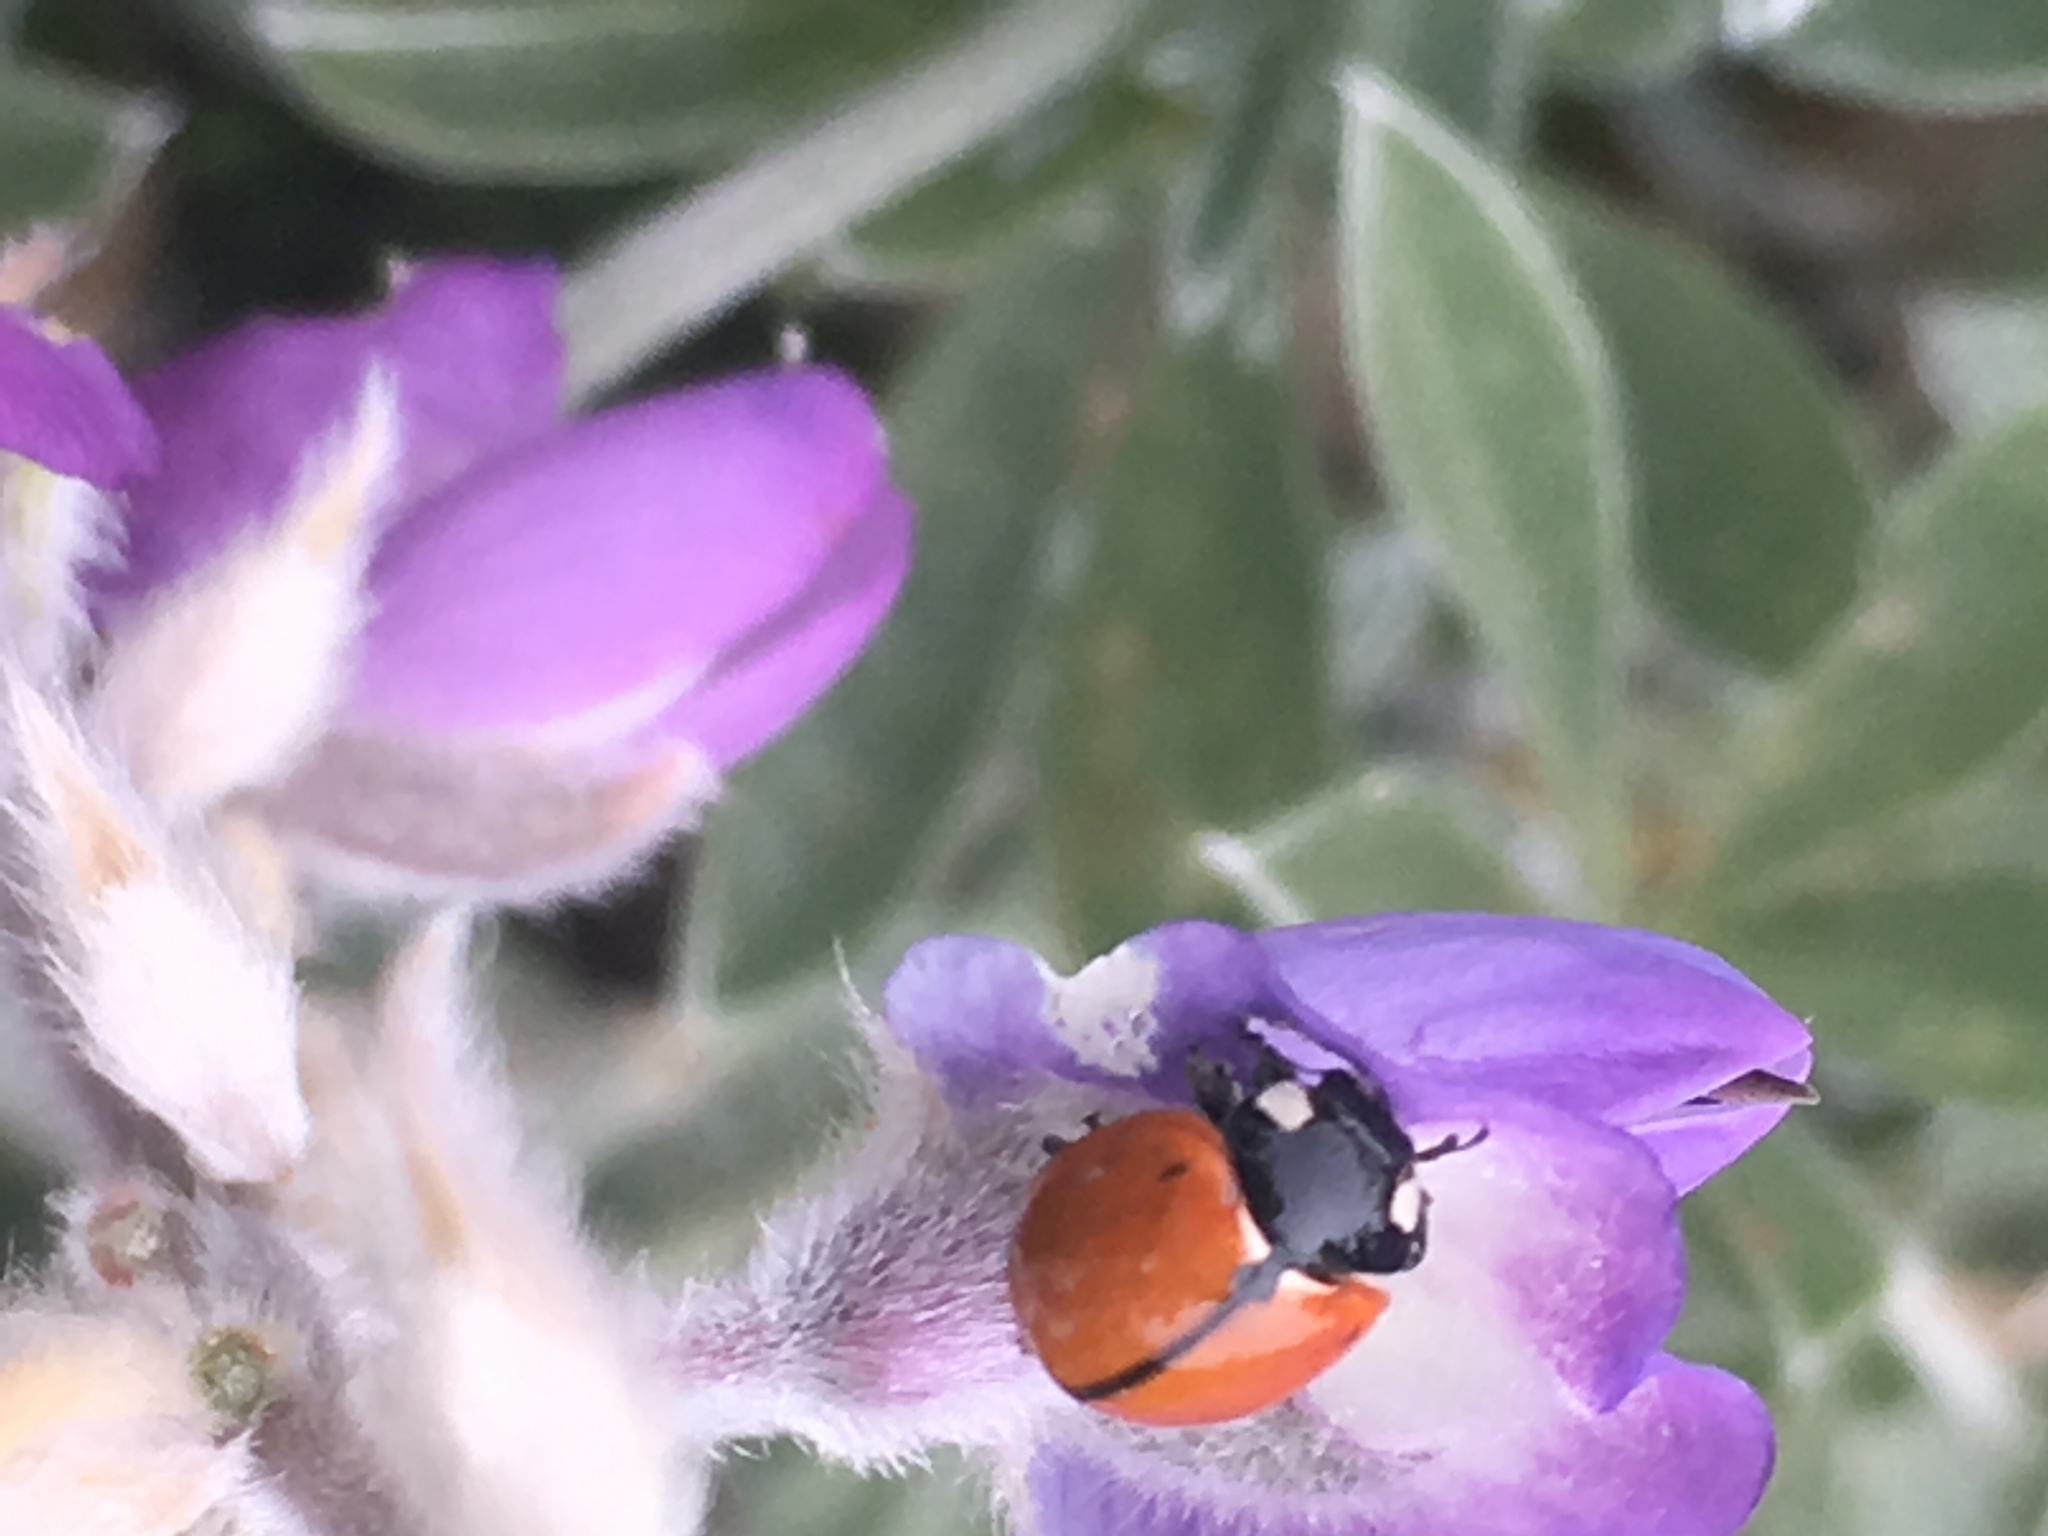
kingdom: Animalia
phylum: Arthropoda
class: Insecta
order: Coleoptera
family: Coccinellidae
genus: Coccinella
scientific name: Coccinella californica
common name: Lady beetle
